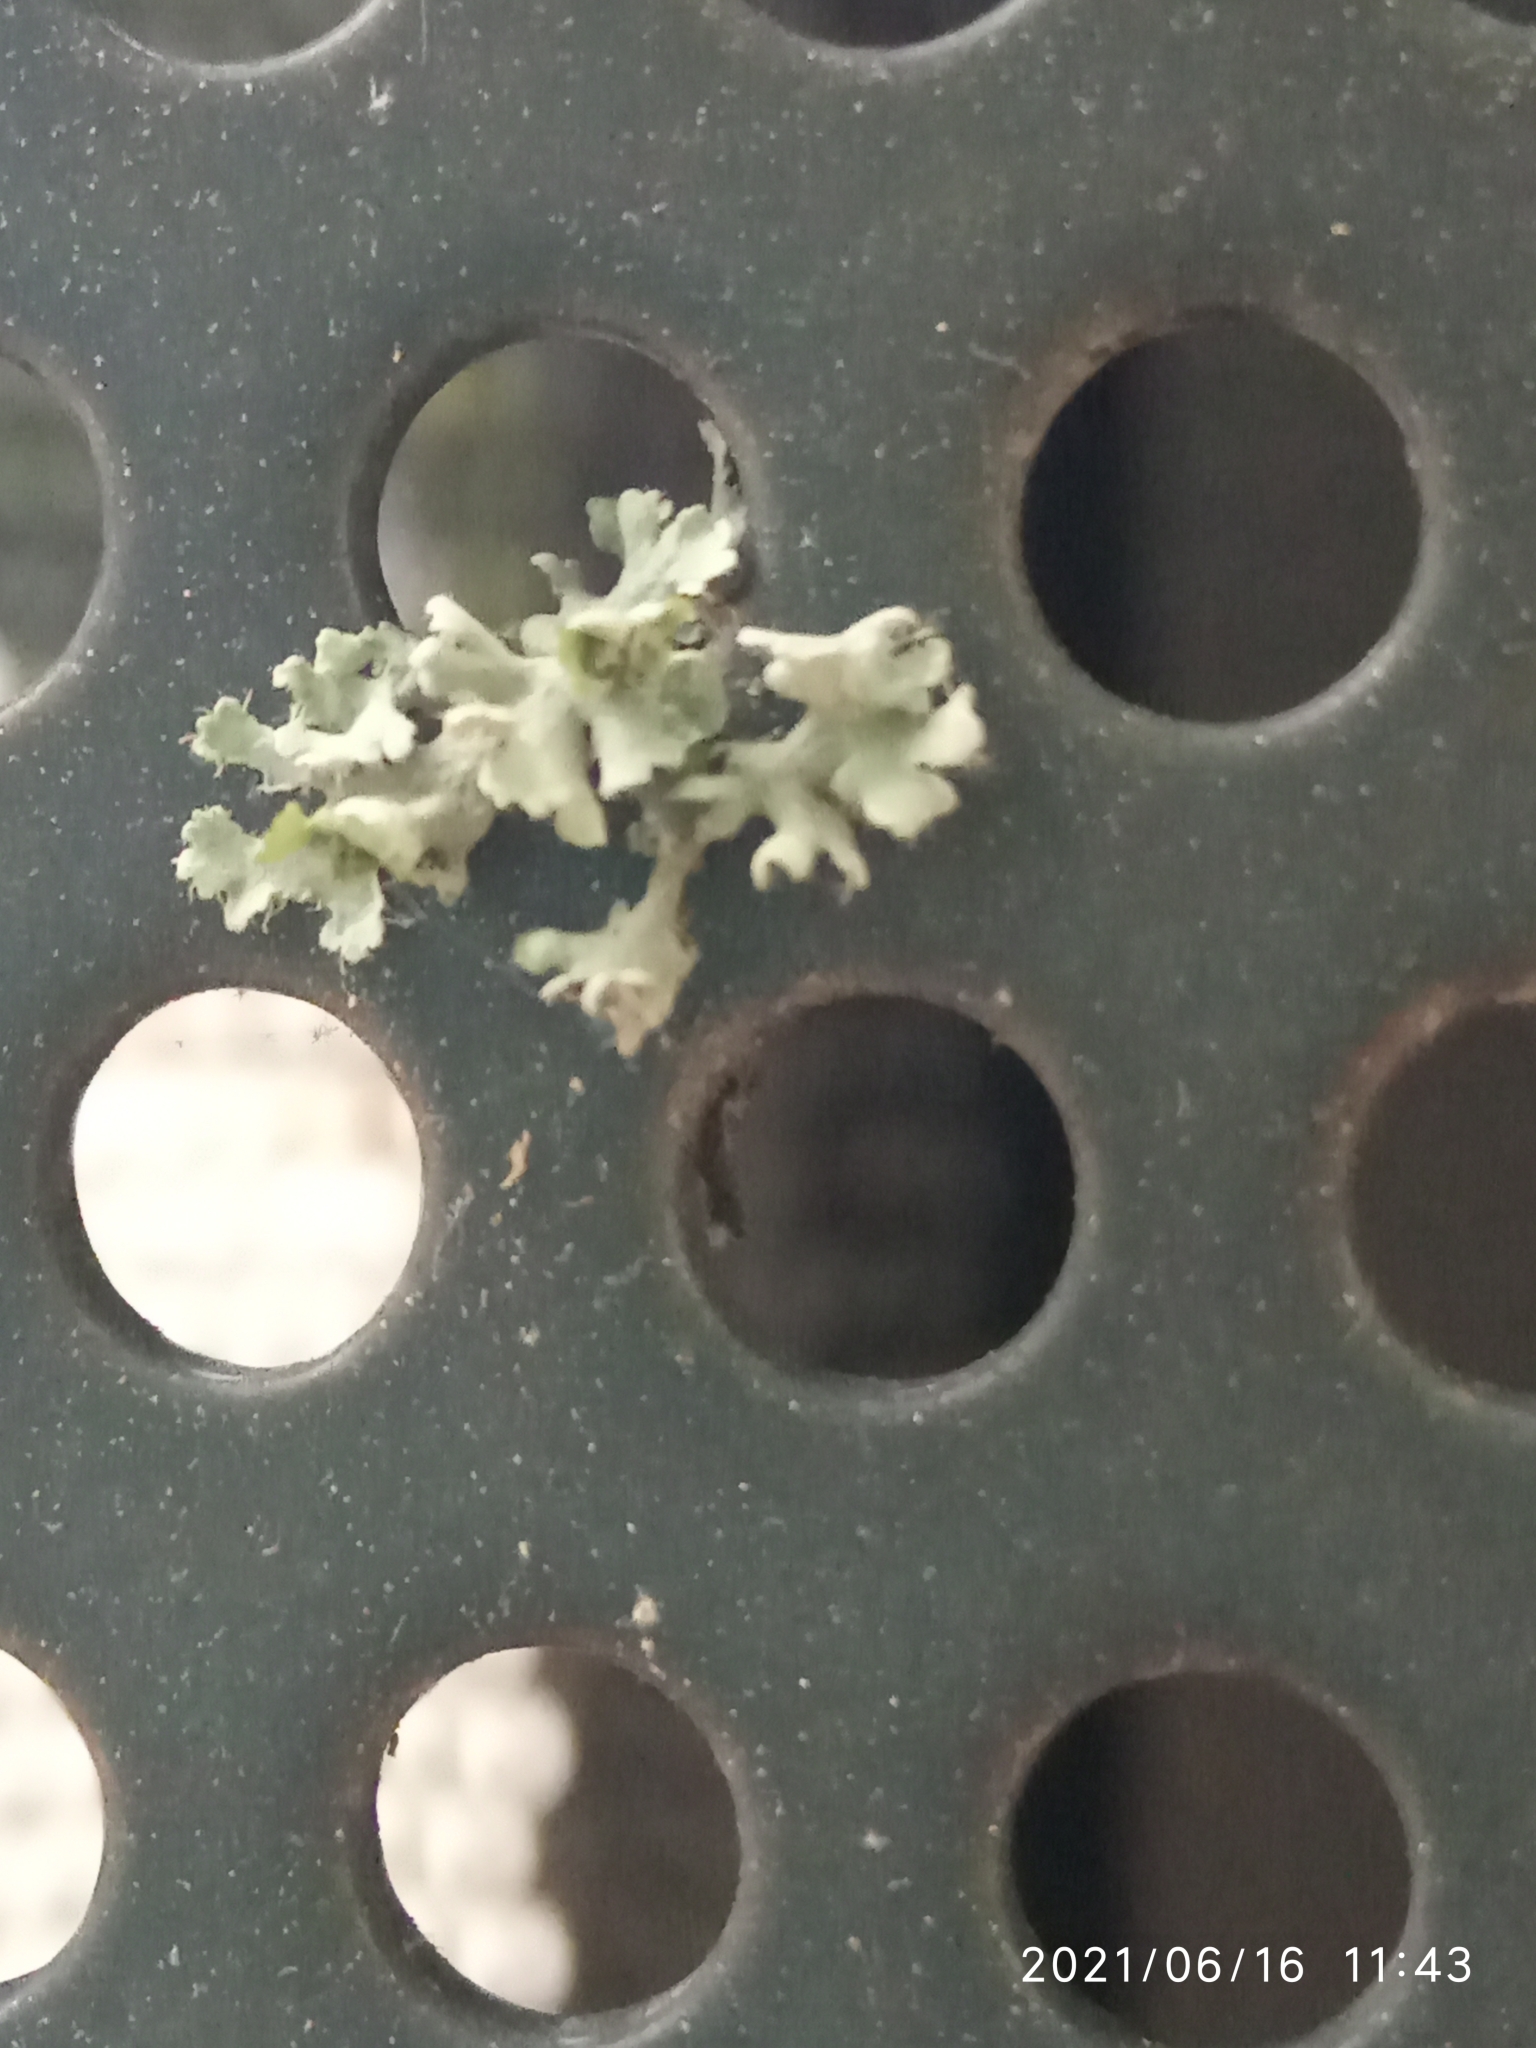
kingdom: Fungi
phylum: Ascomycota
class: Lecanoromycetes
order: Caliciales
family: Physciaceae
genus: Physcia
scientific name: Physcia adscendens
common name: Hooded rosette lichen
